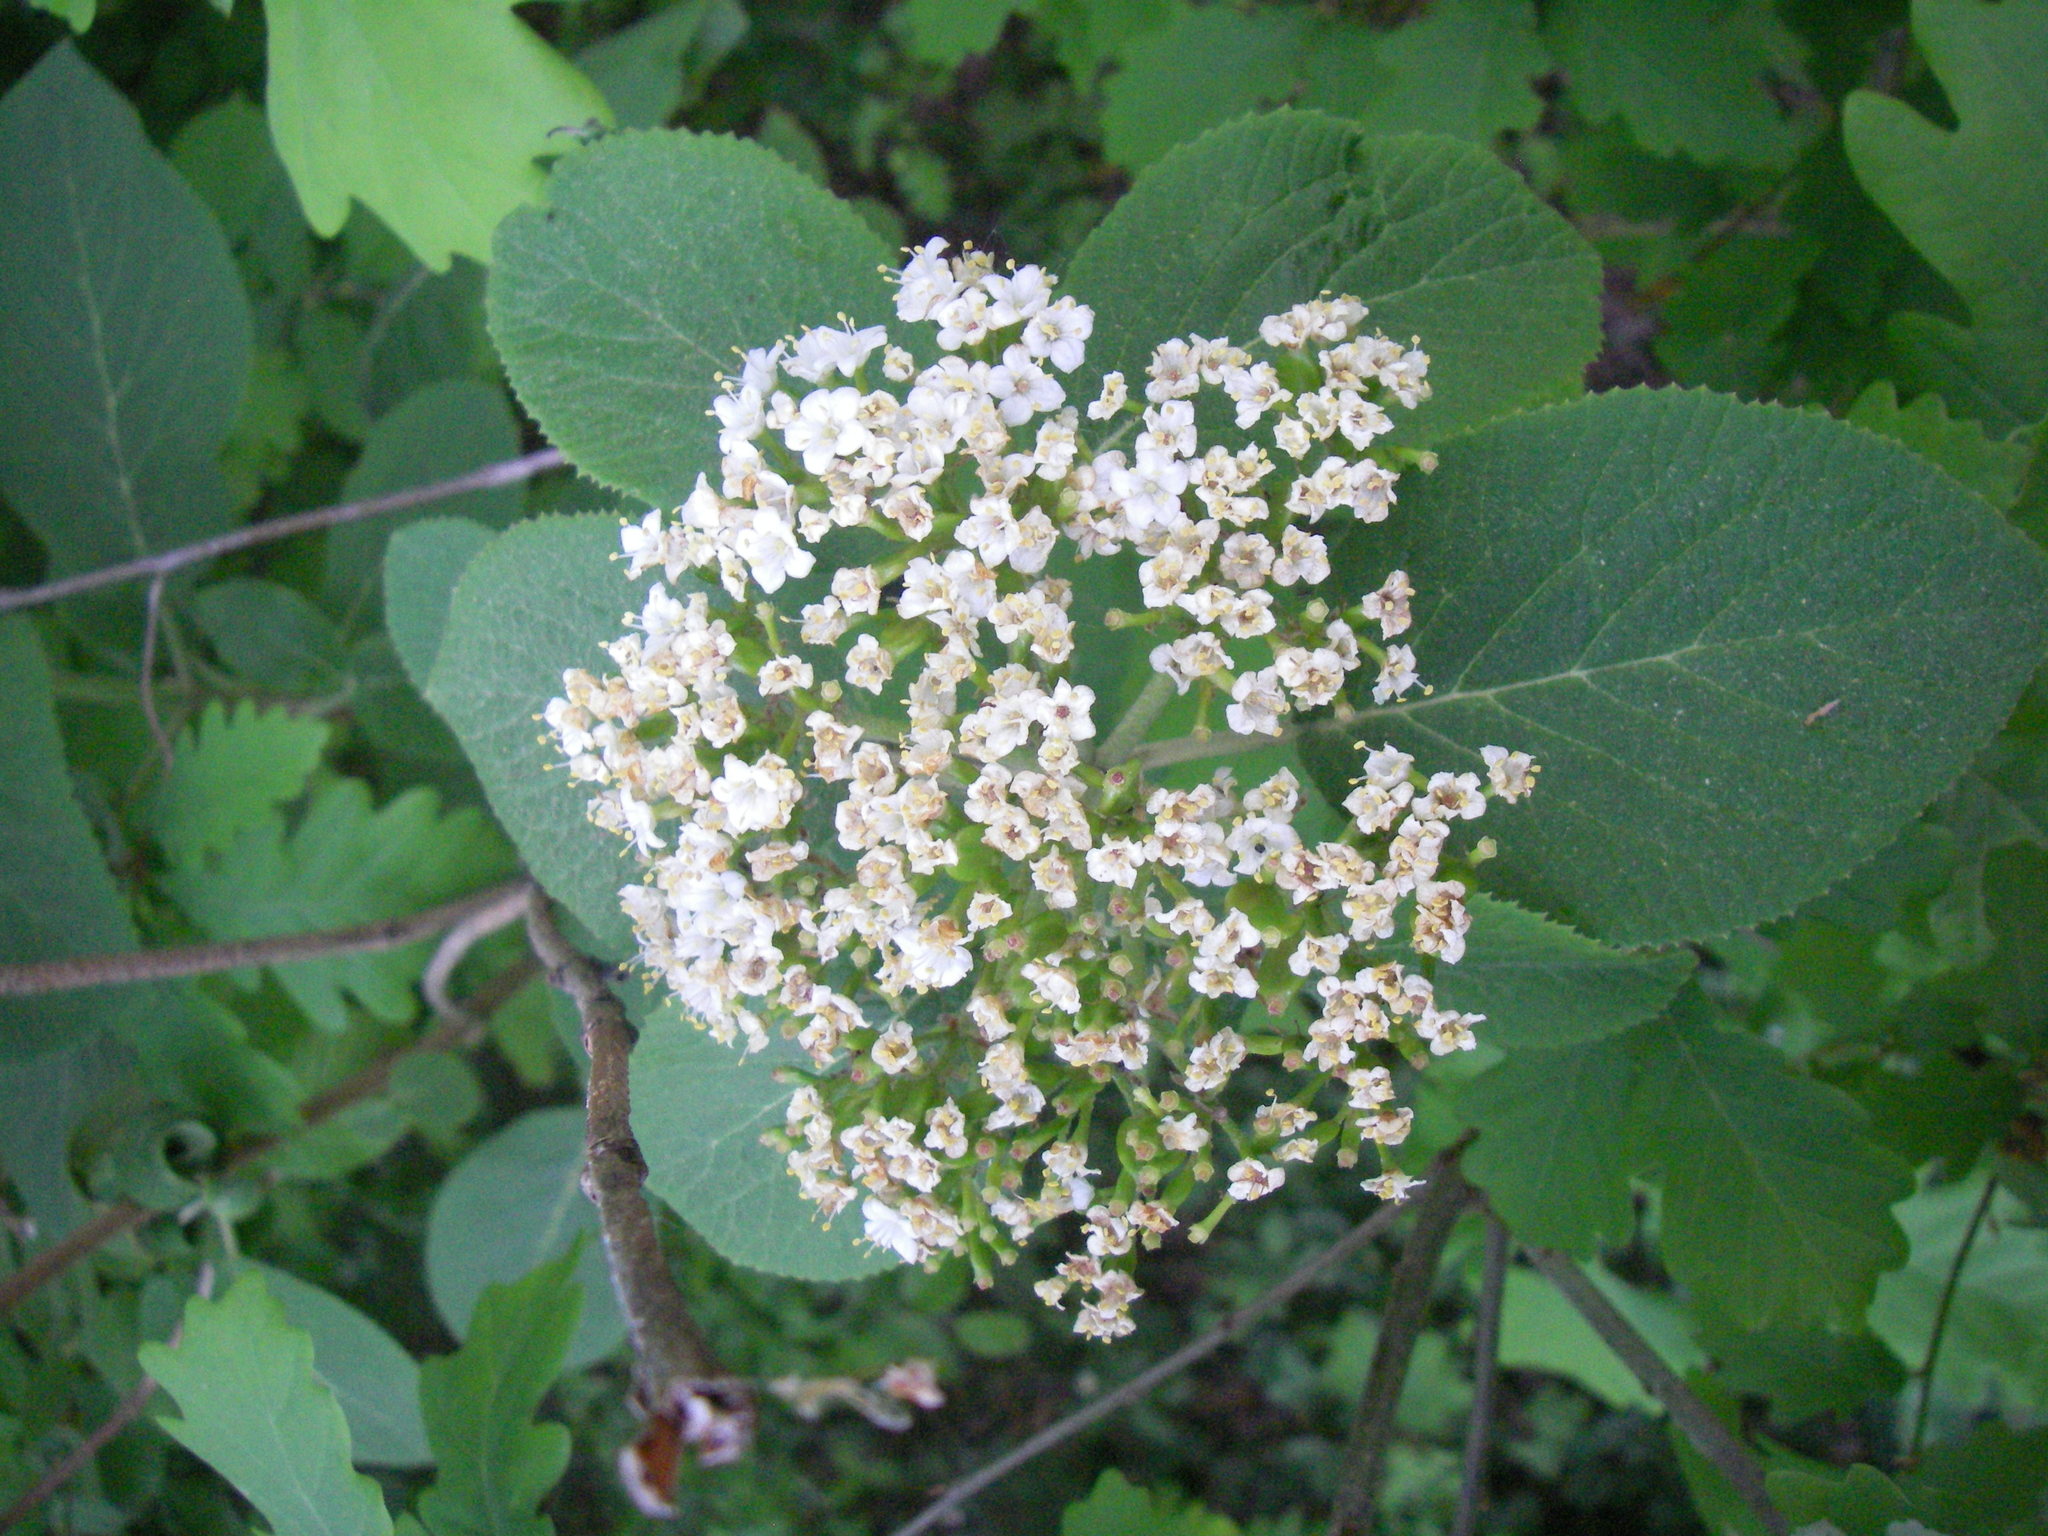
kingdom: Plantae
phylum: Tracheophyta
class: Magnoliopsida
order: Dipsacales
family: Viburnaceae
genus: Viburnum
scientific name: Viburnum lantana
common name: Wayfaring tree
